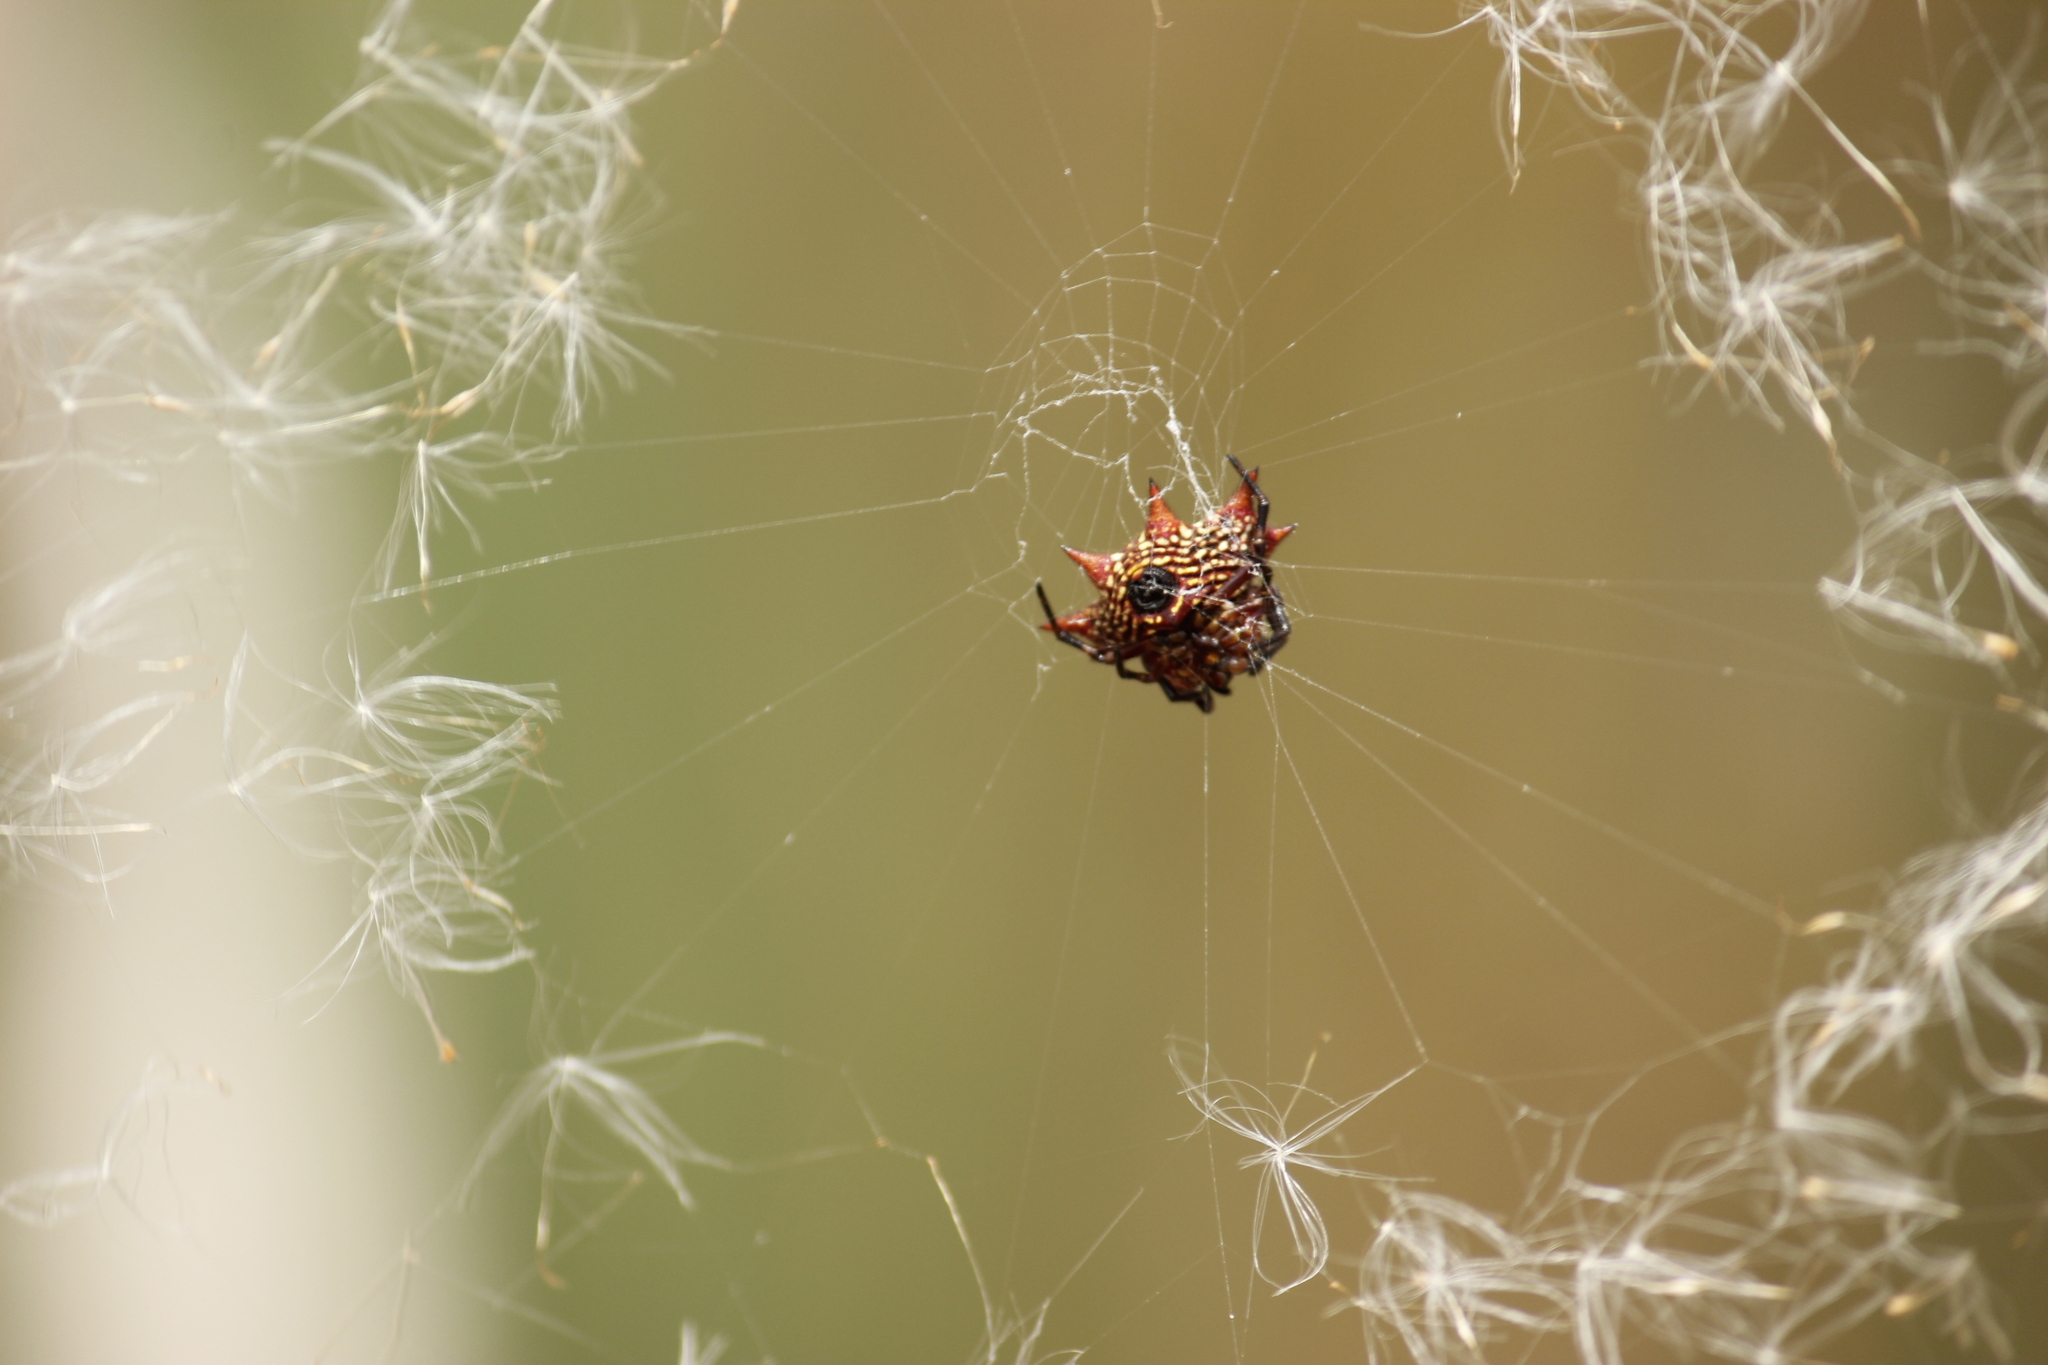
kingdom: Animalia
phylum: Arthropoda
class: Arachnida
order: Araneae
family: Araneidae
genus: Gasteracantha
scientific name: Gasteracantha cancriformis
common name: Orb weavers
